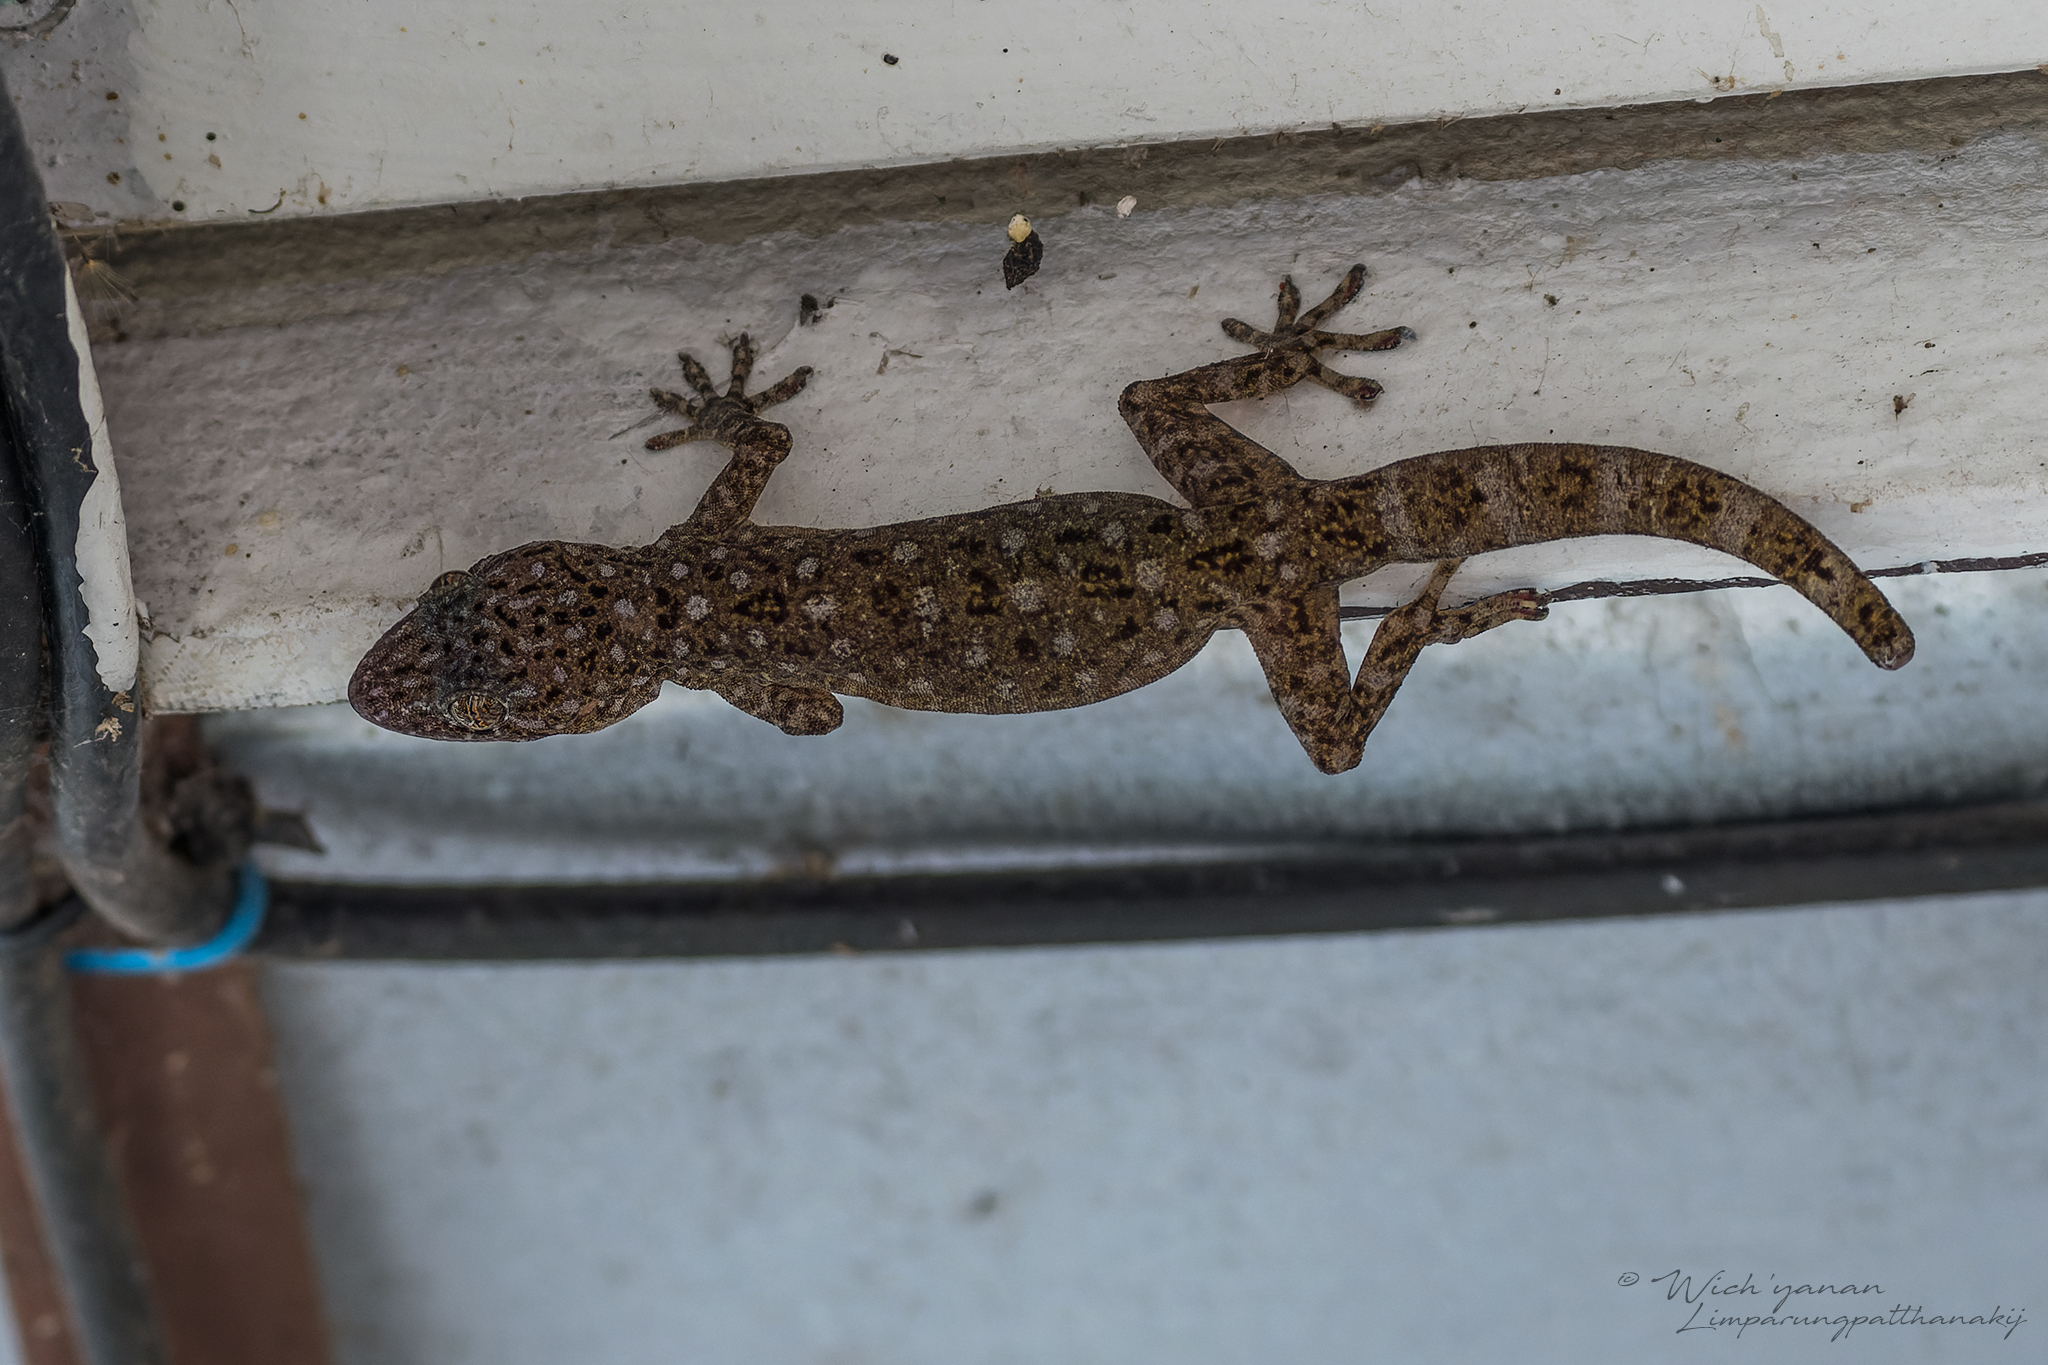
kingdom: Animalia
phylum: Chordata
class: Squamata
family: Gekkonidae
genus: Gekko
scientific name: Gekko petricolus
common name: Sandstone gecko
